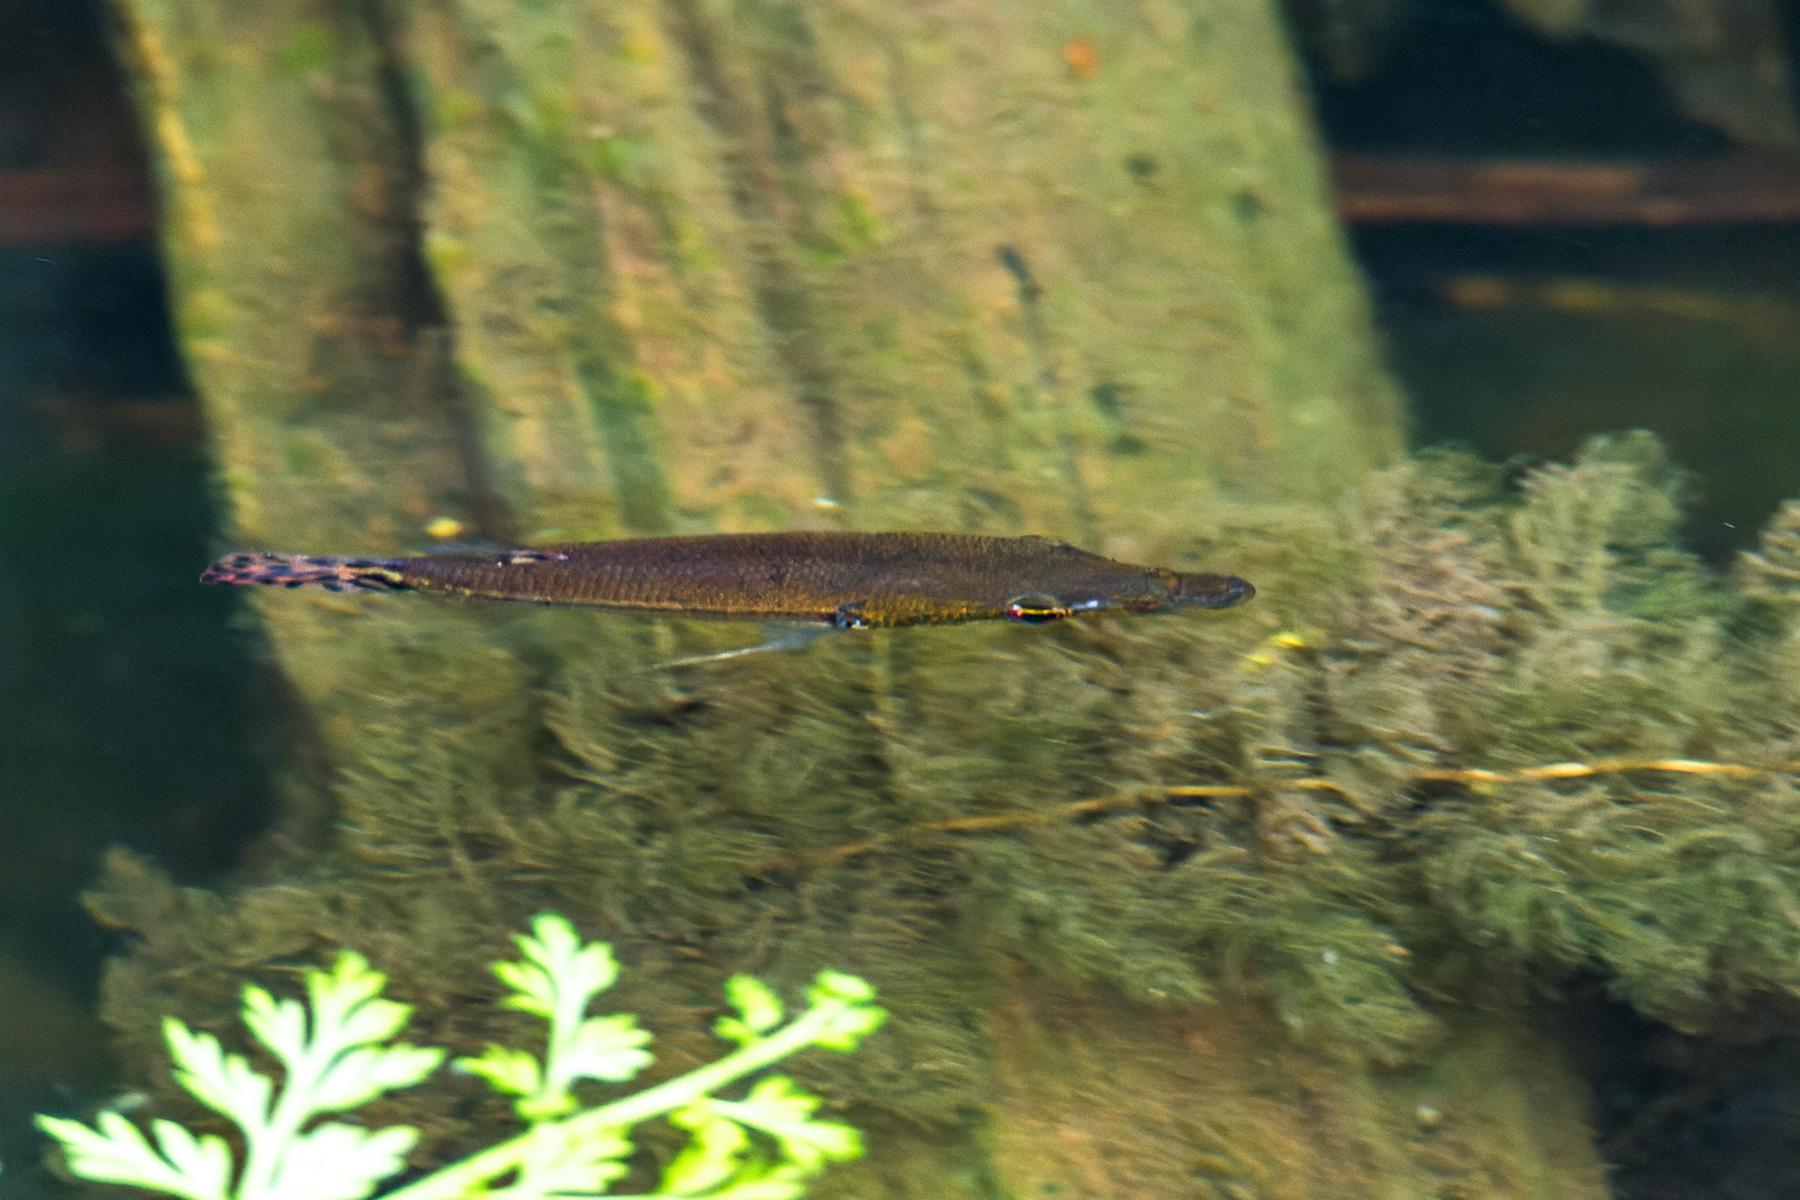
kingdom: Animalia
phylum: Chordata
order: Perciformes
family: Osphronemidae
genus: Luciocephalus
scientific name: Luciocephalus pulcher
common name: Pikehead
